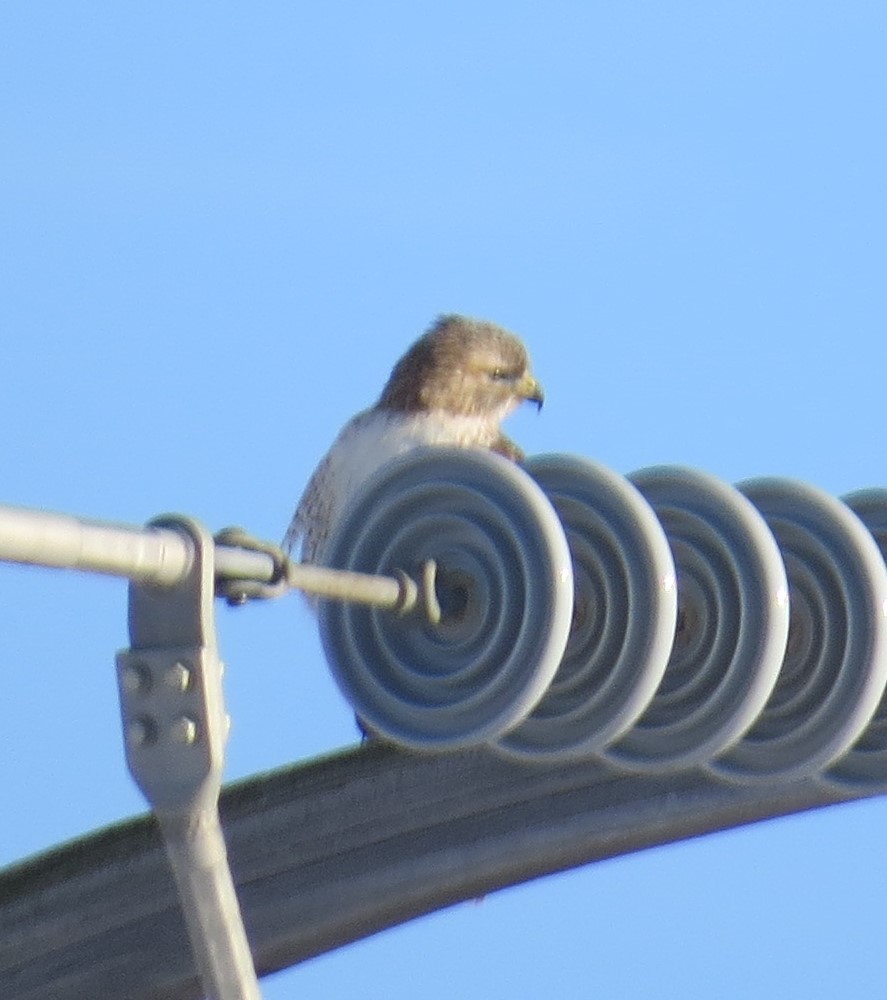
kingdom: Animalia
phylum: Chordata
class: Aves
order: Accipitriformes
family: Accipitridae
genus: Buteo
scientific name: Buteo jamaicensis
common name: Red-tailed hawk
